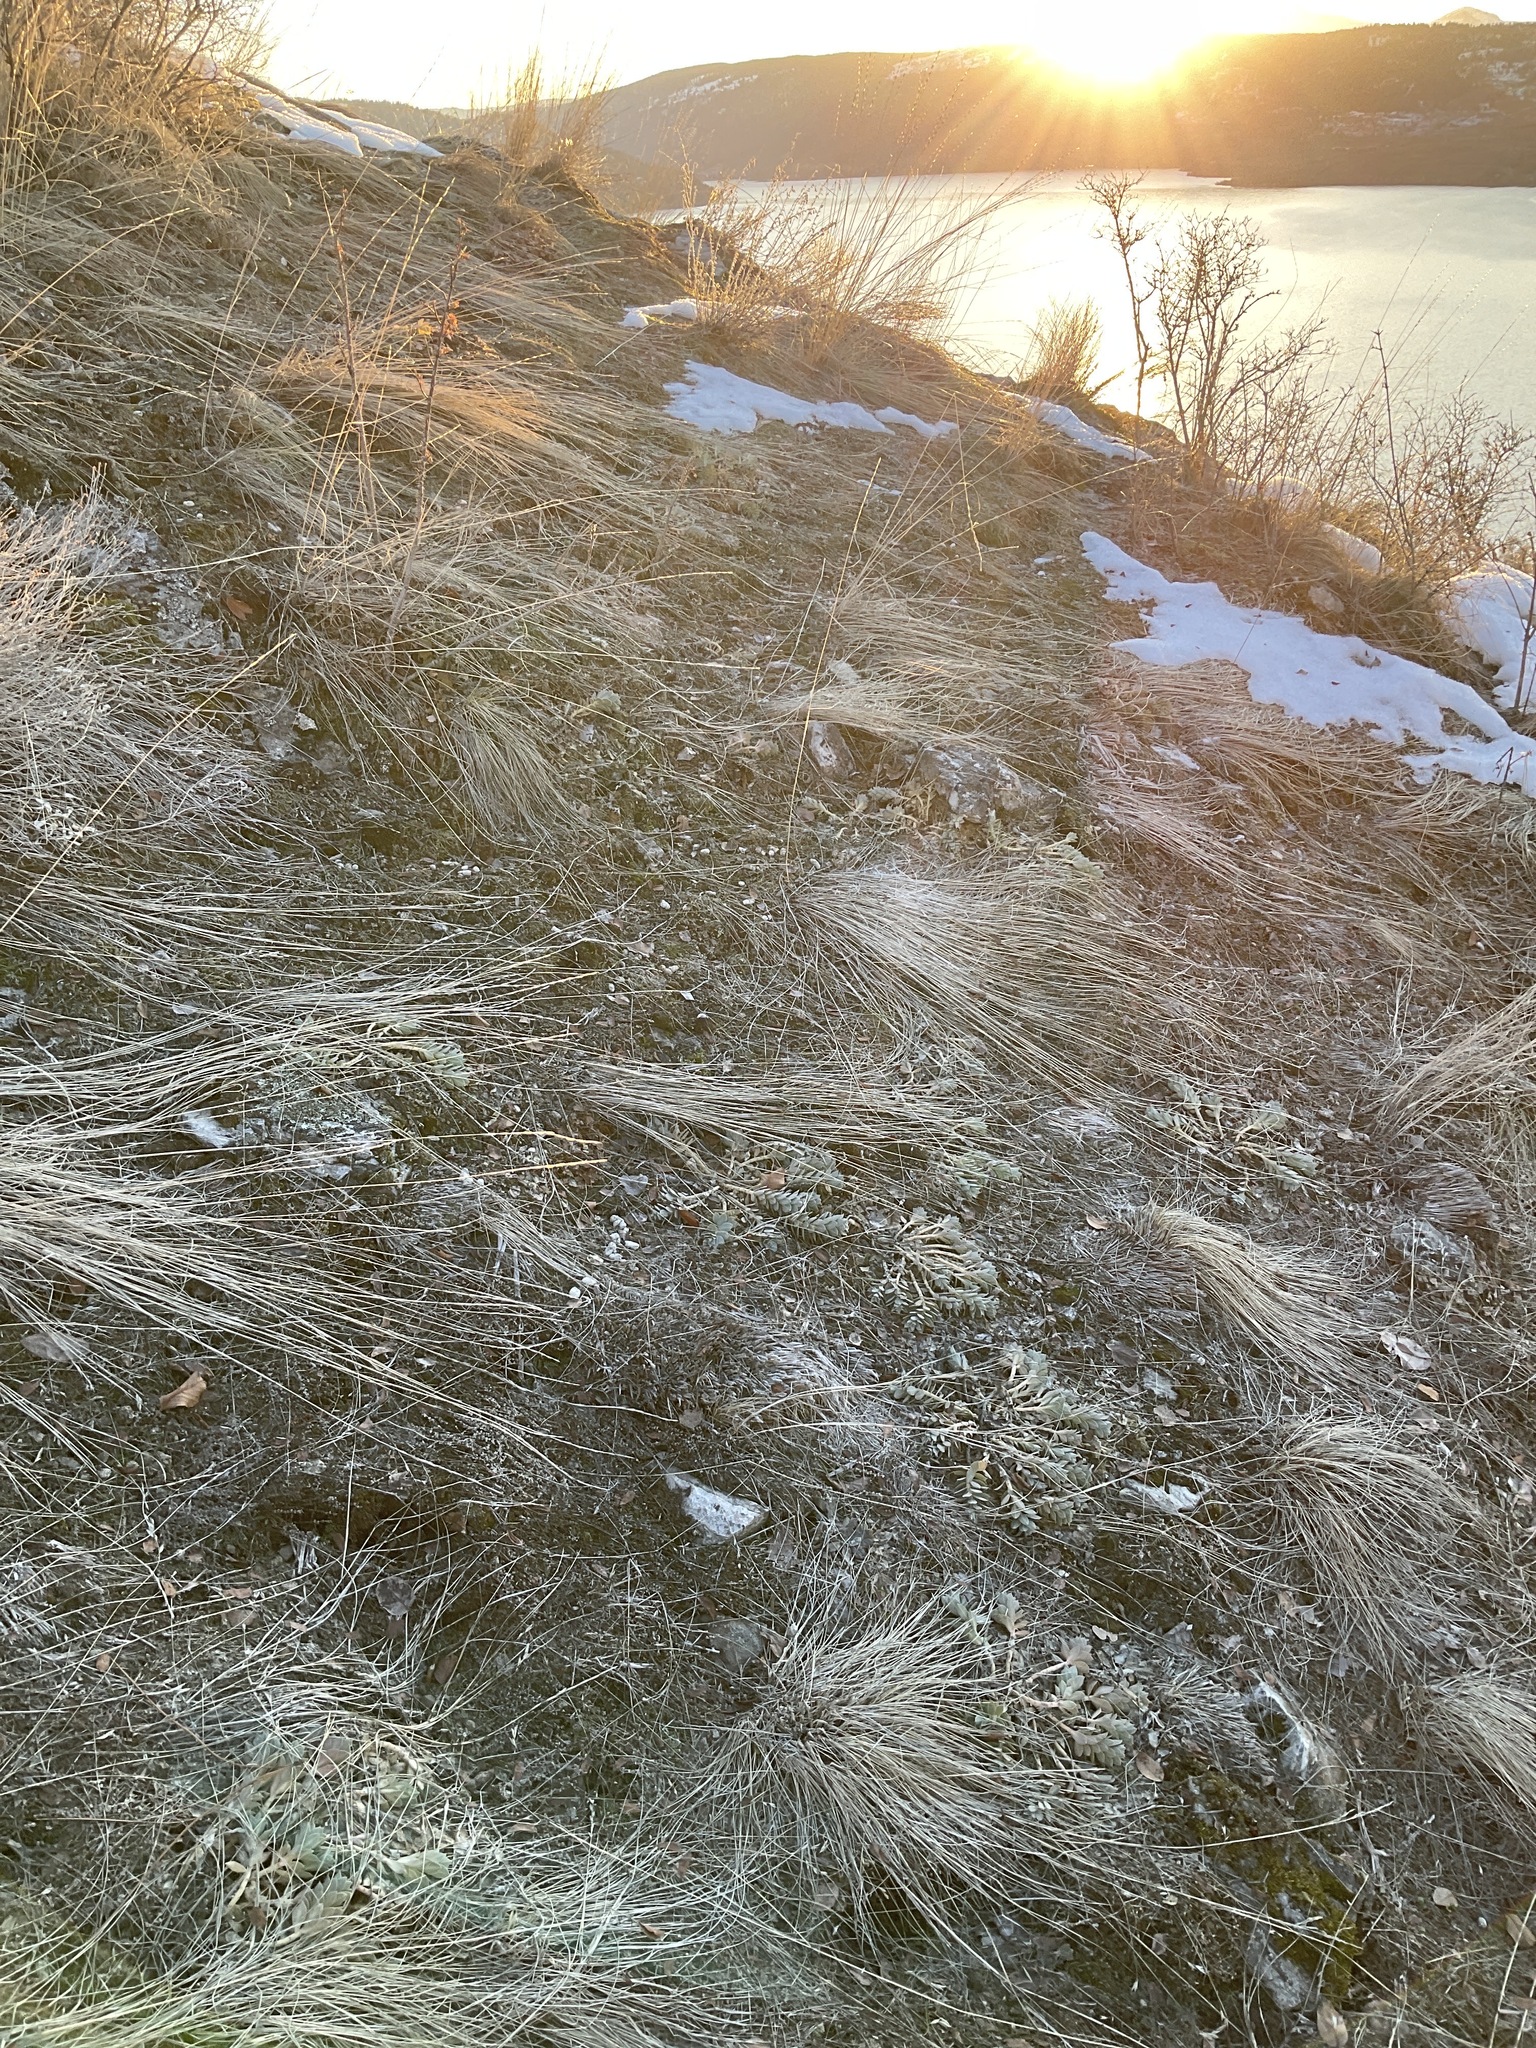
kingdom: Plantae
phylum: Tracheophyta
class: Magnoliopsida
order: Malpighiales
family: Euphorbiaceae
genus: Euphorbia
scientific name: Euphorbia myrsinites
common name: Myrtle spurge
